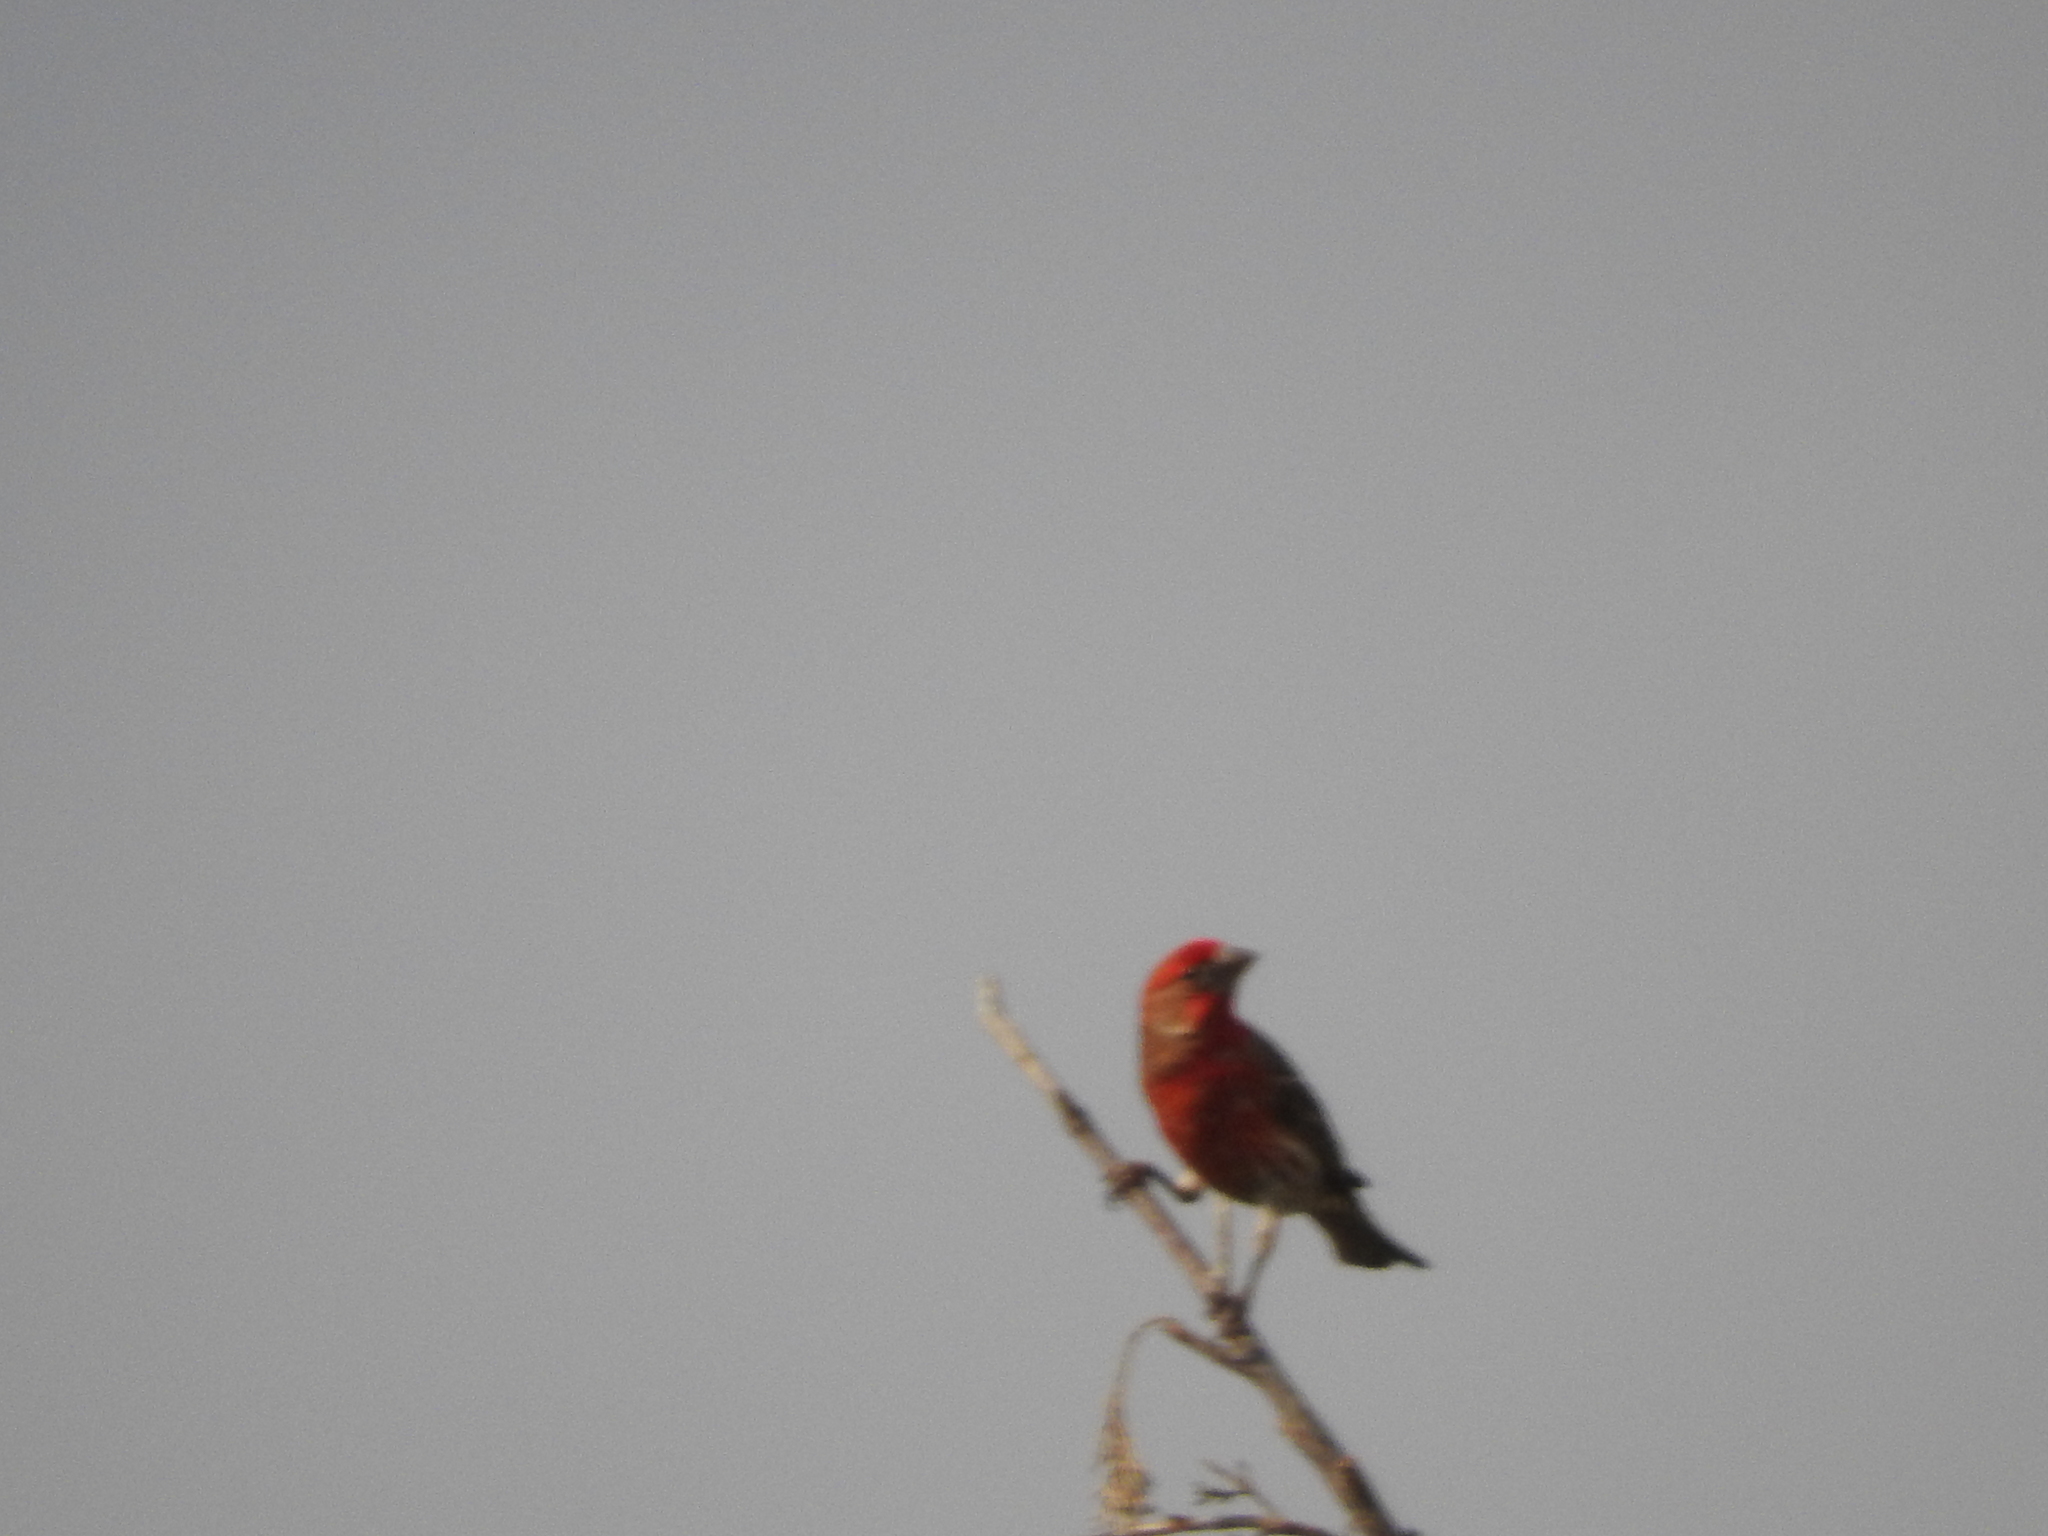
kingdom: Animalia
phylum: Chordata
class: Aves
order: Passeriformes
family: Fringillidae
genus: Haemorhous
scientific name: Haemorhous mexicanus
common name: House finch
